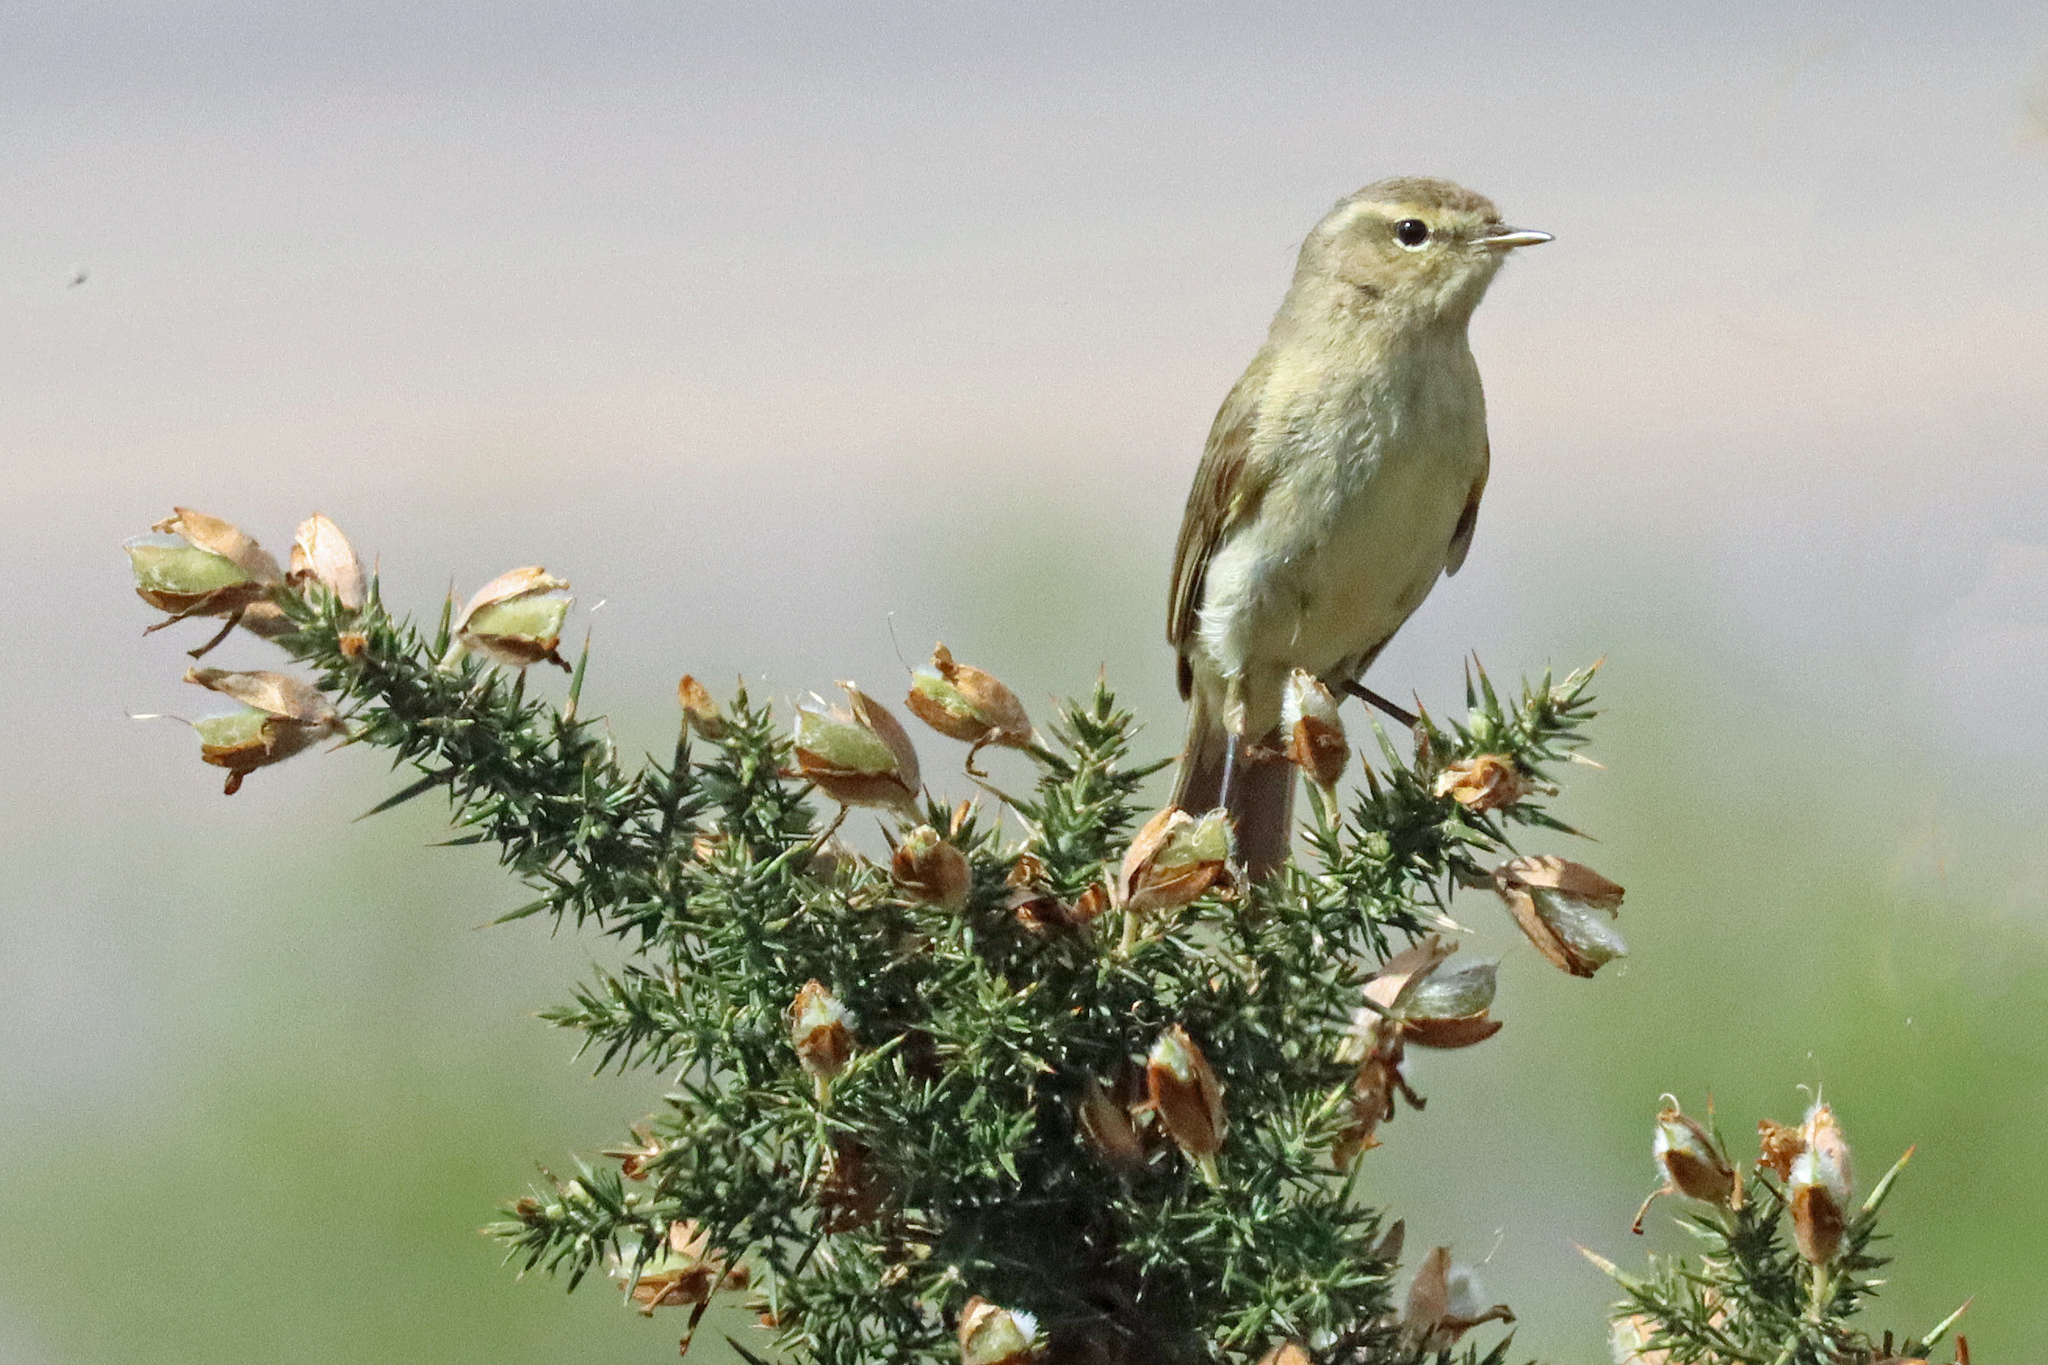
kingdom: Animalia
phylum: Chordata
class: Aves
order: Passeriformes
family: Phylloscopidae
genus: Phylloscopus
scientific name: Phylloscopus collybita
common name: Common chiffchaff
